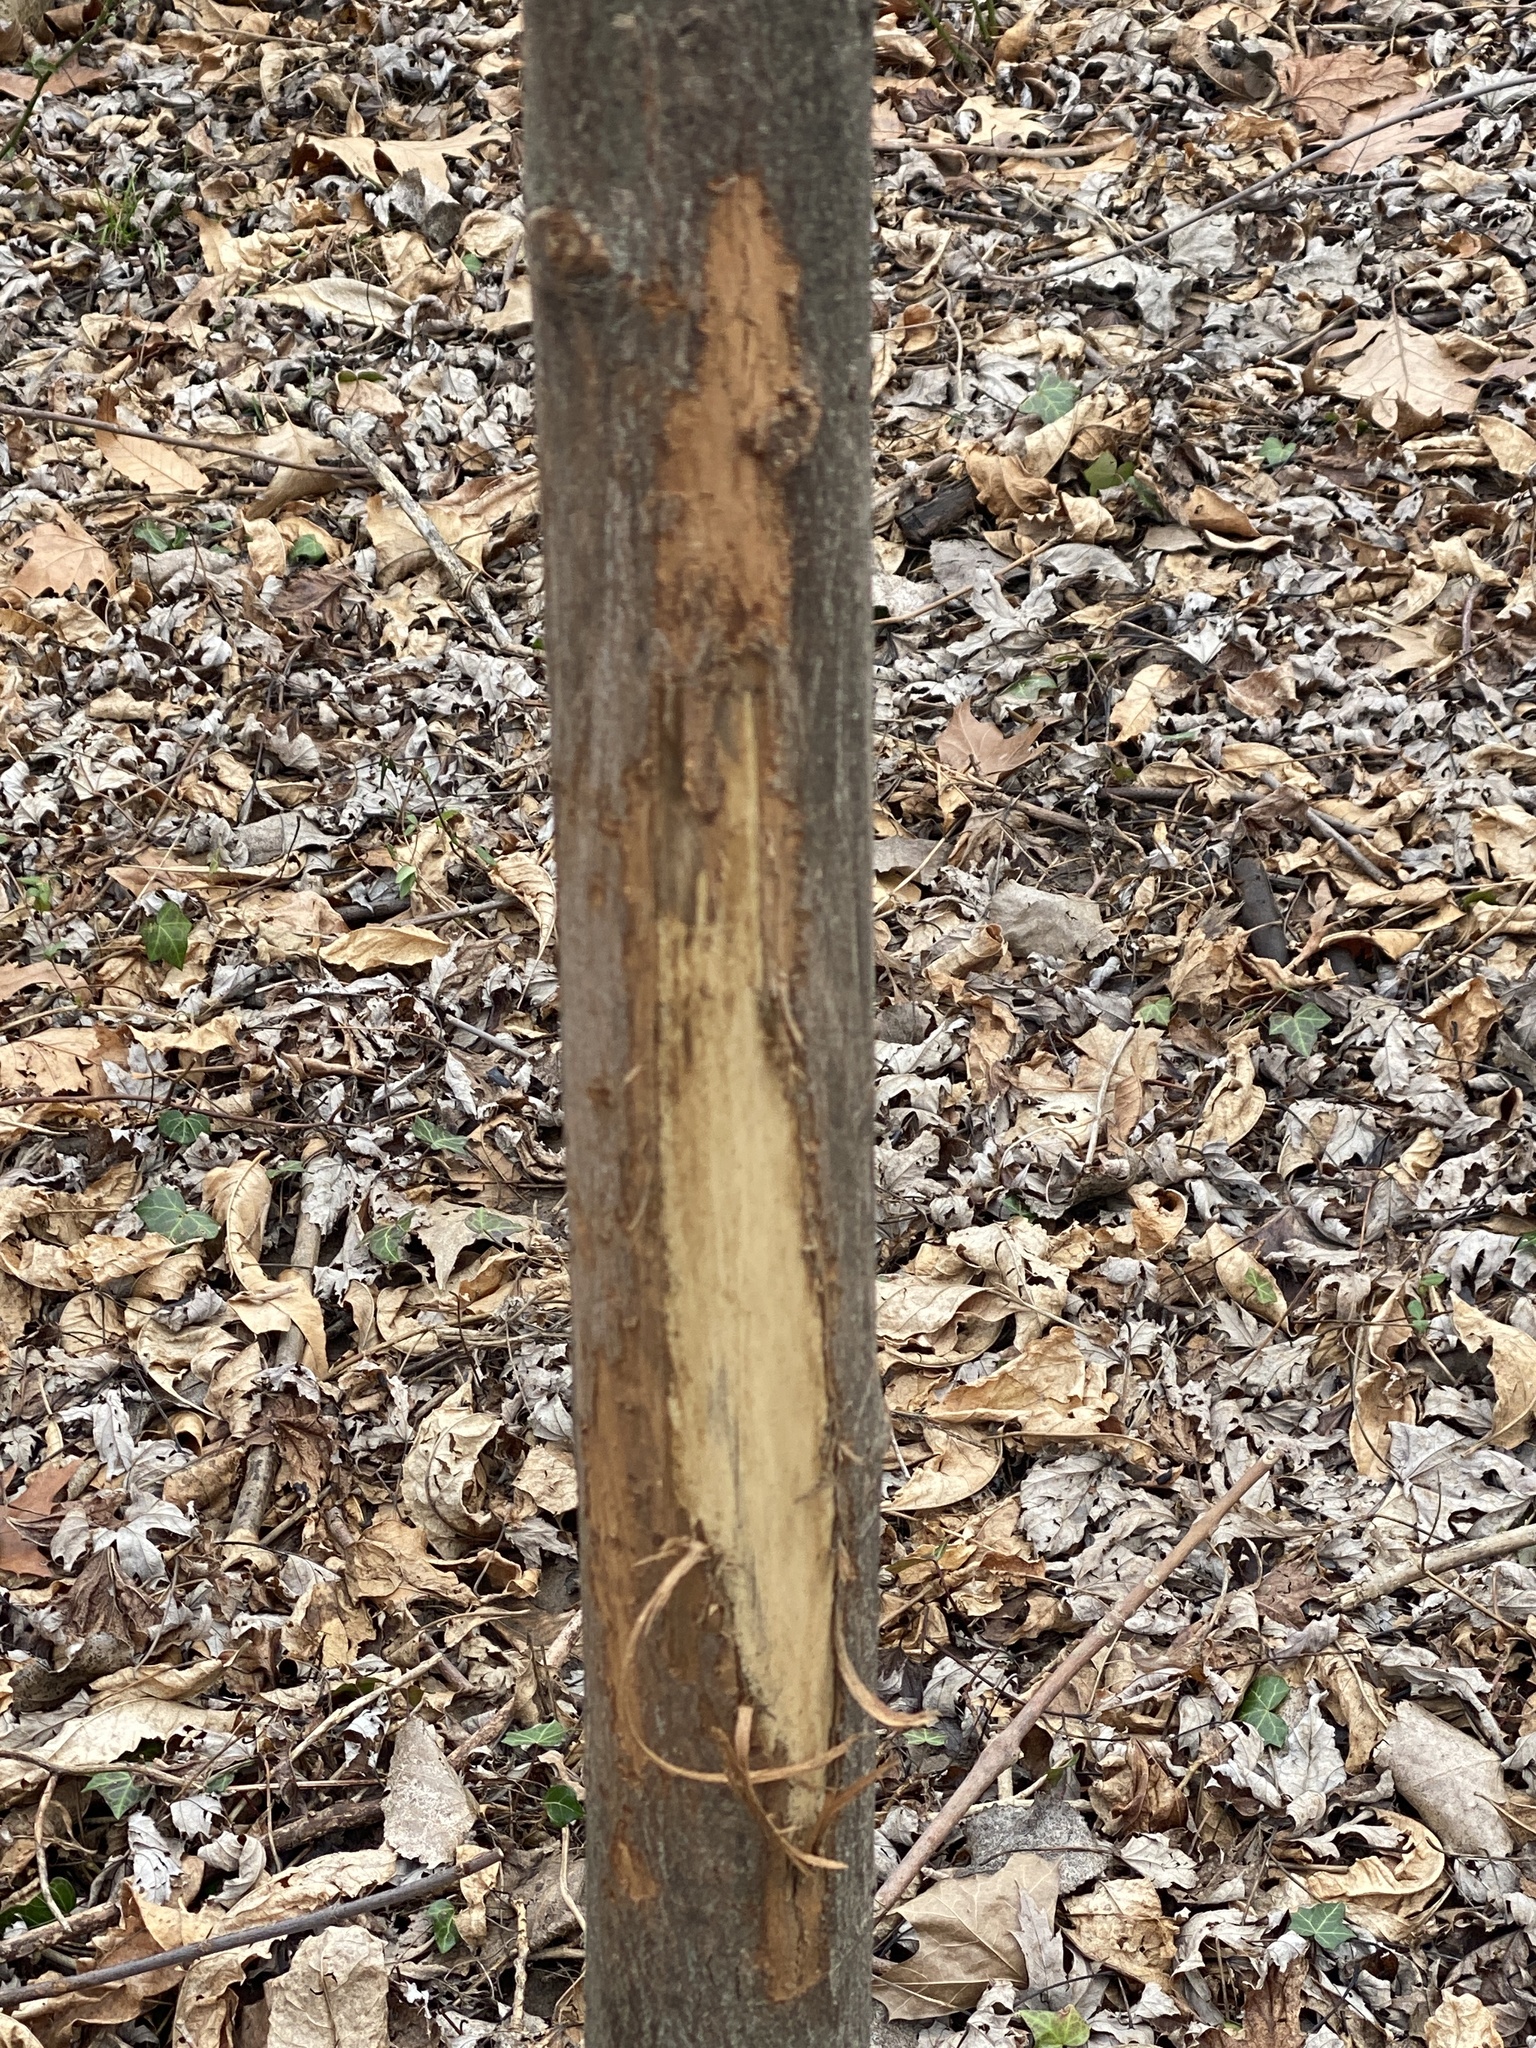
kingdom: Animalia
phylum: Chordata
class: Mammalia
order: Artiodactyla
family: Cervidae
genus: Odocoileus
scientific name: Odocoileus virginianus
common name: White-tailed deer
